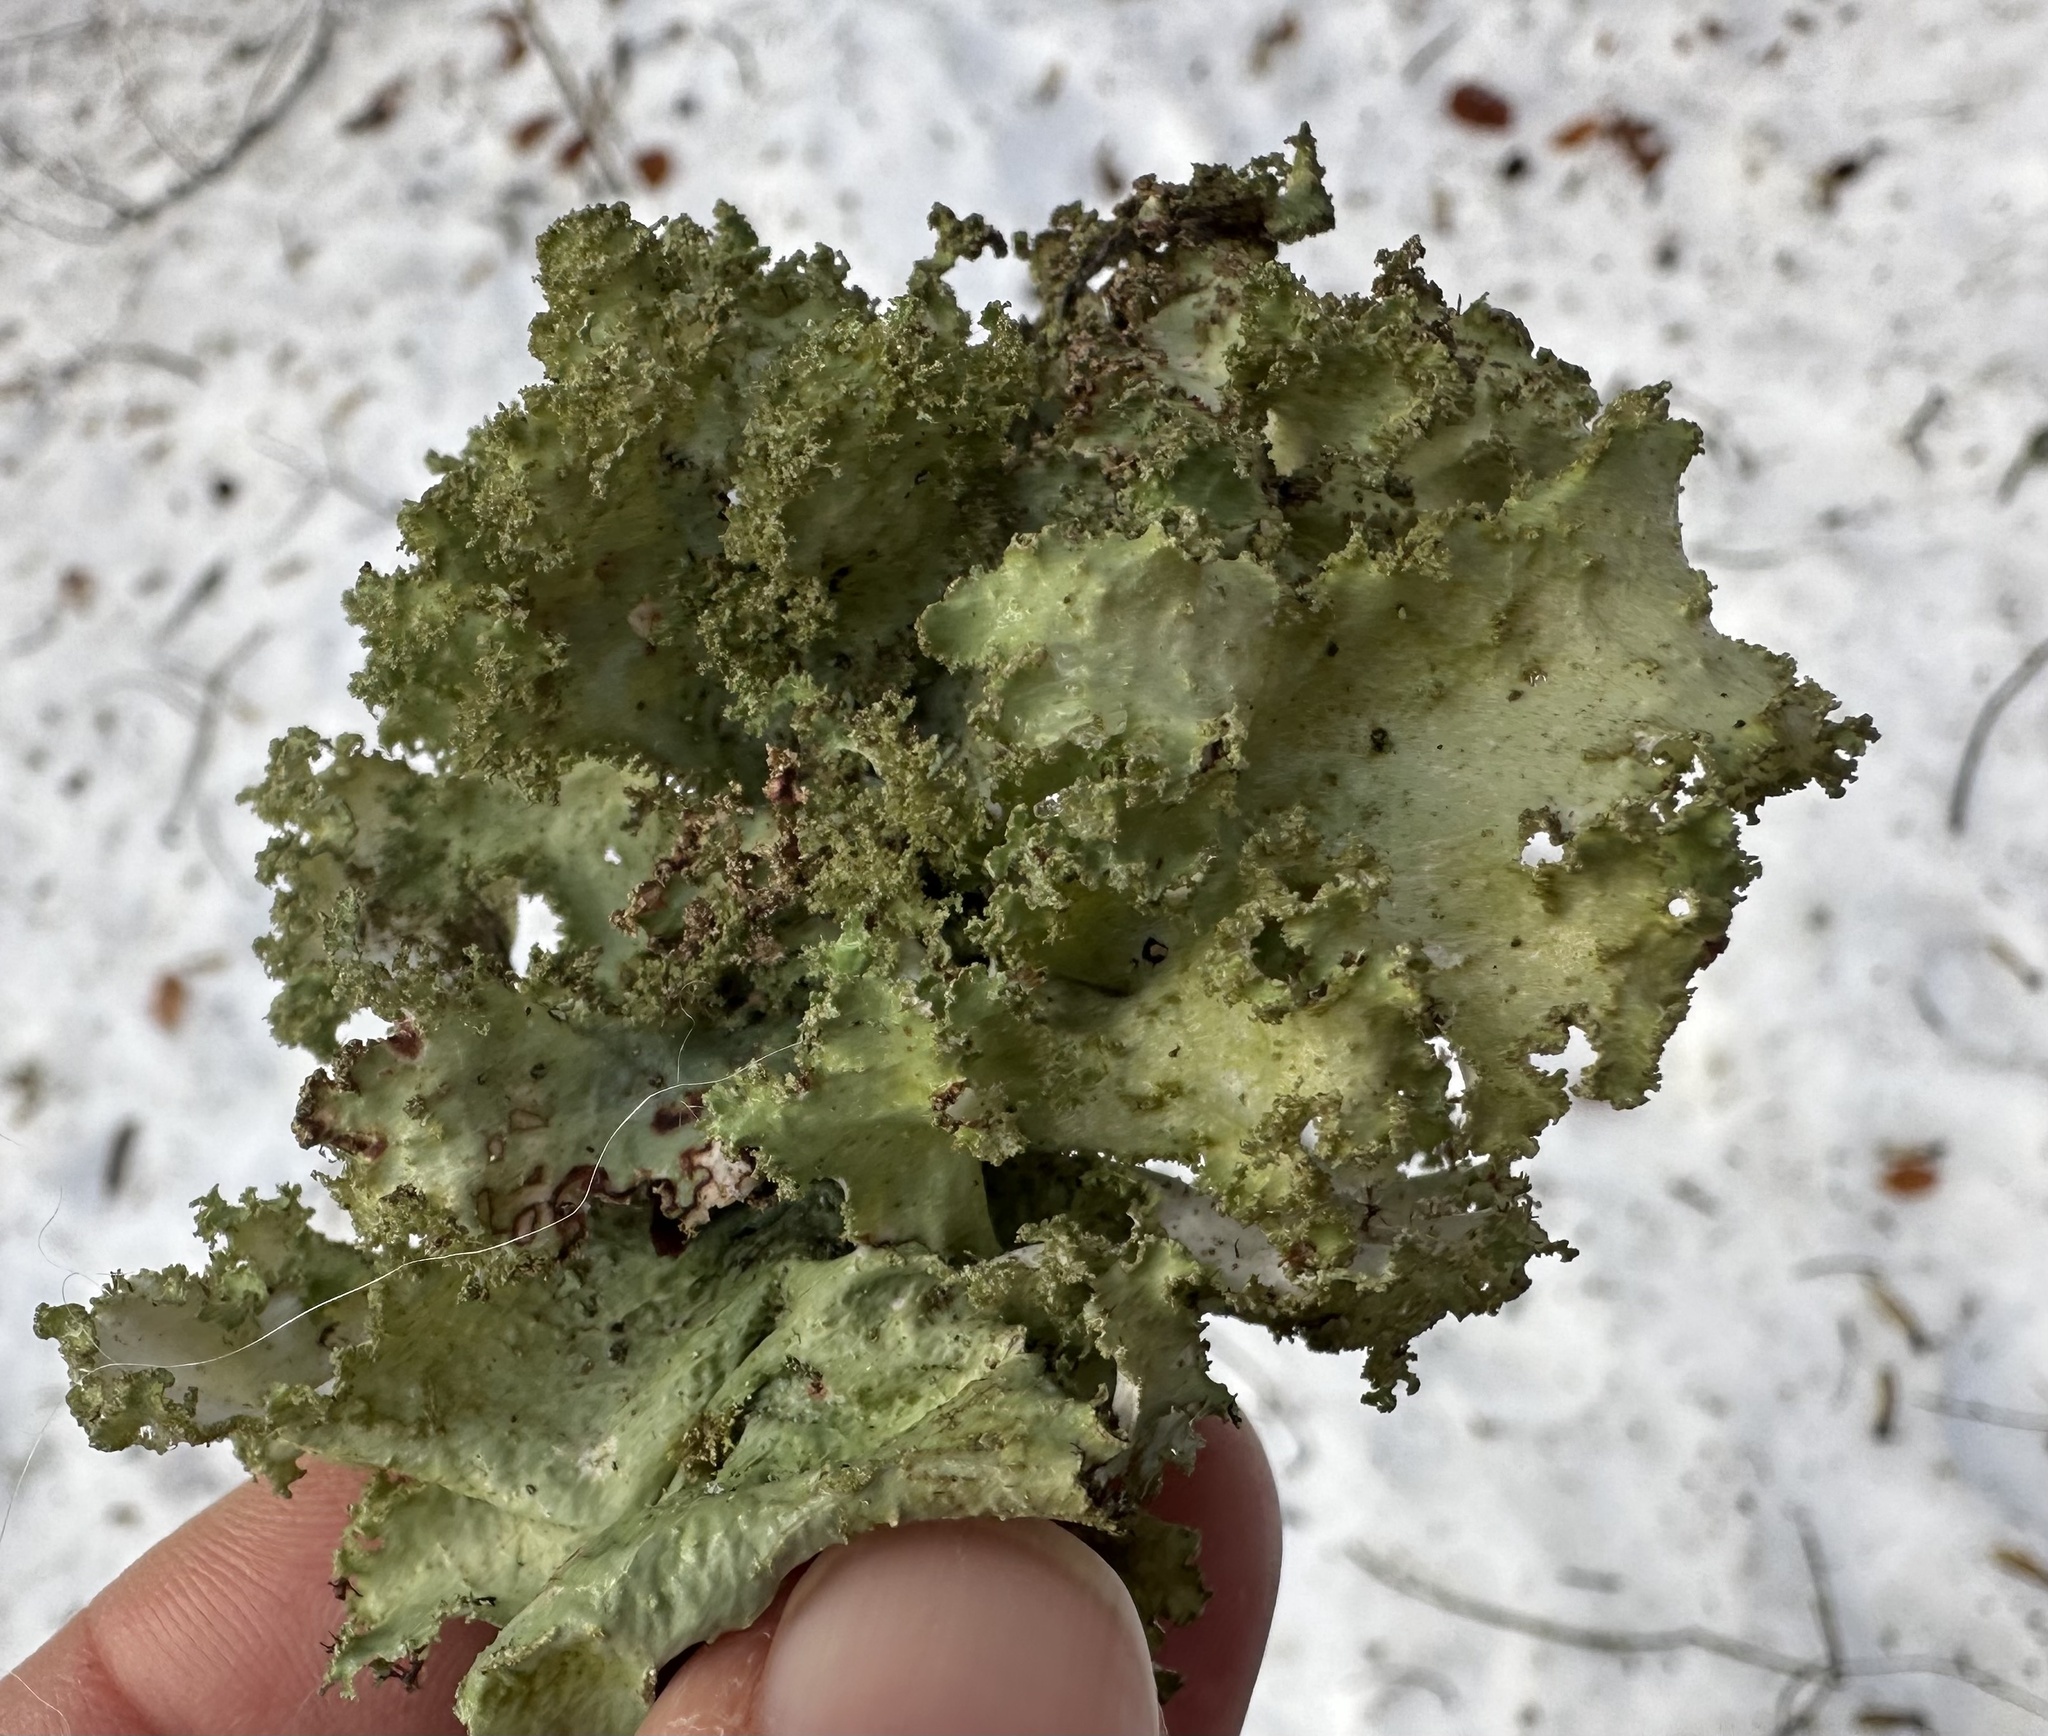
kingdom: Fungi
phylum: Ascomycota
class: Lecanoromycetes
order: Lecanorales
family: Parmeliaceae
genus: Platismatia
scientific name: Platismatia glauca
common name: Varied rag lichen
